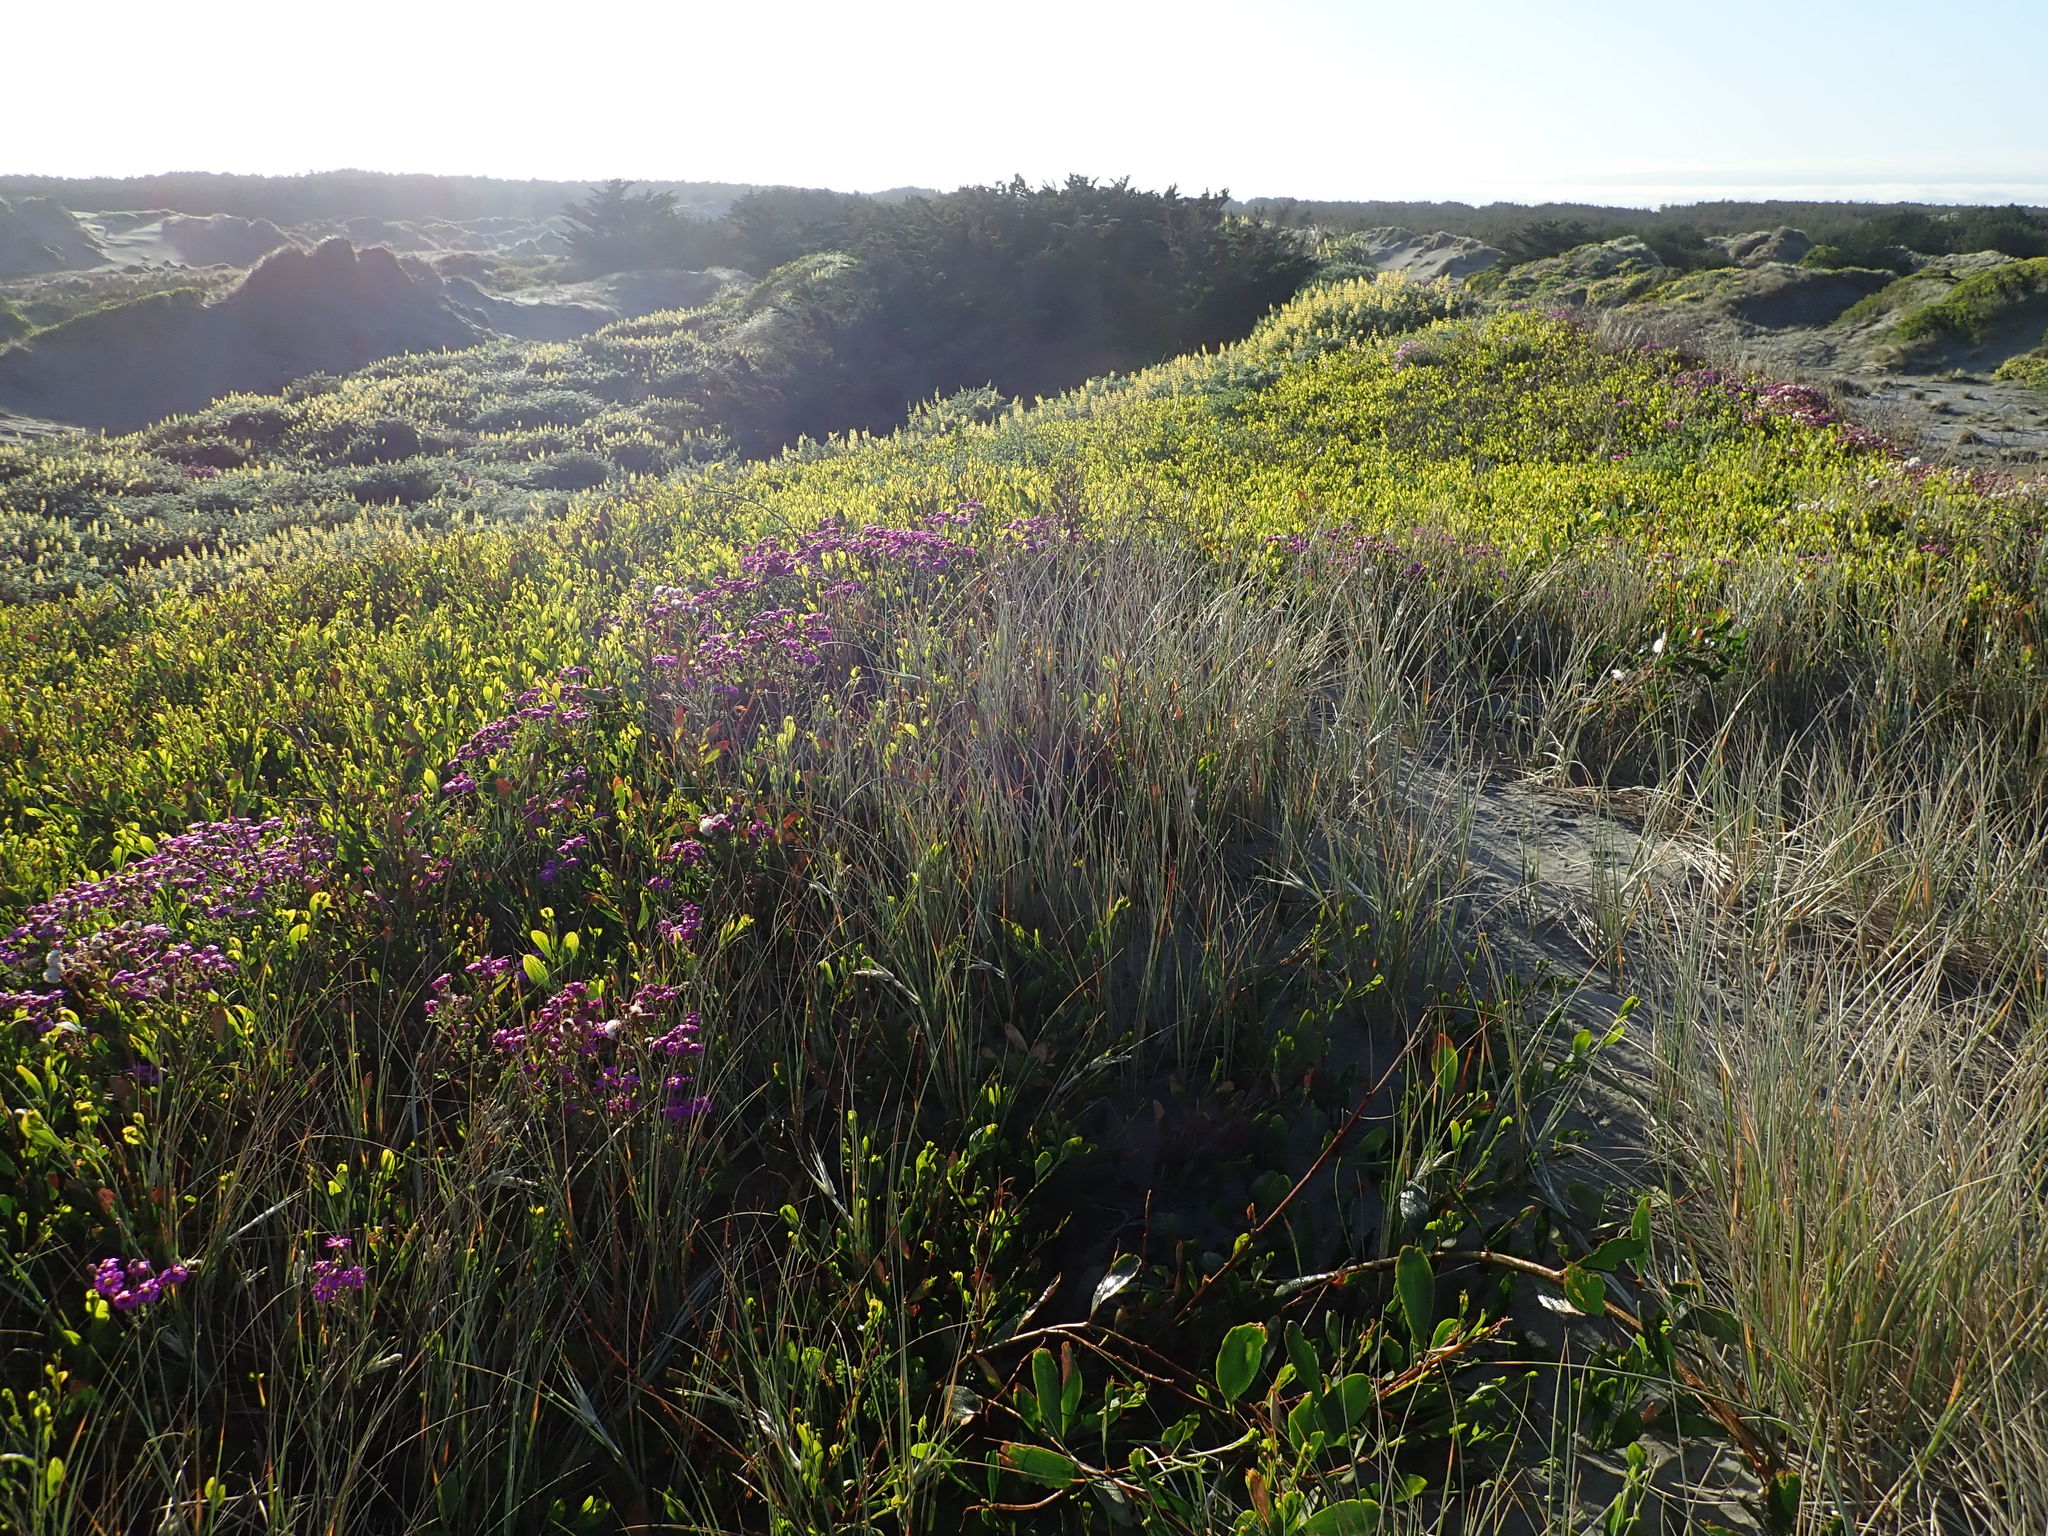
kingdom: Plantae
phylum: Tracheophyta
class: Magnoliopsida
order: Asterales
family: Asteraceae
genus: Senecio
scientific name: Senecio elegans
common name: Purple groundsel
